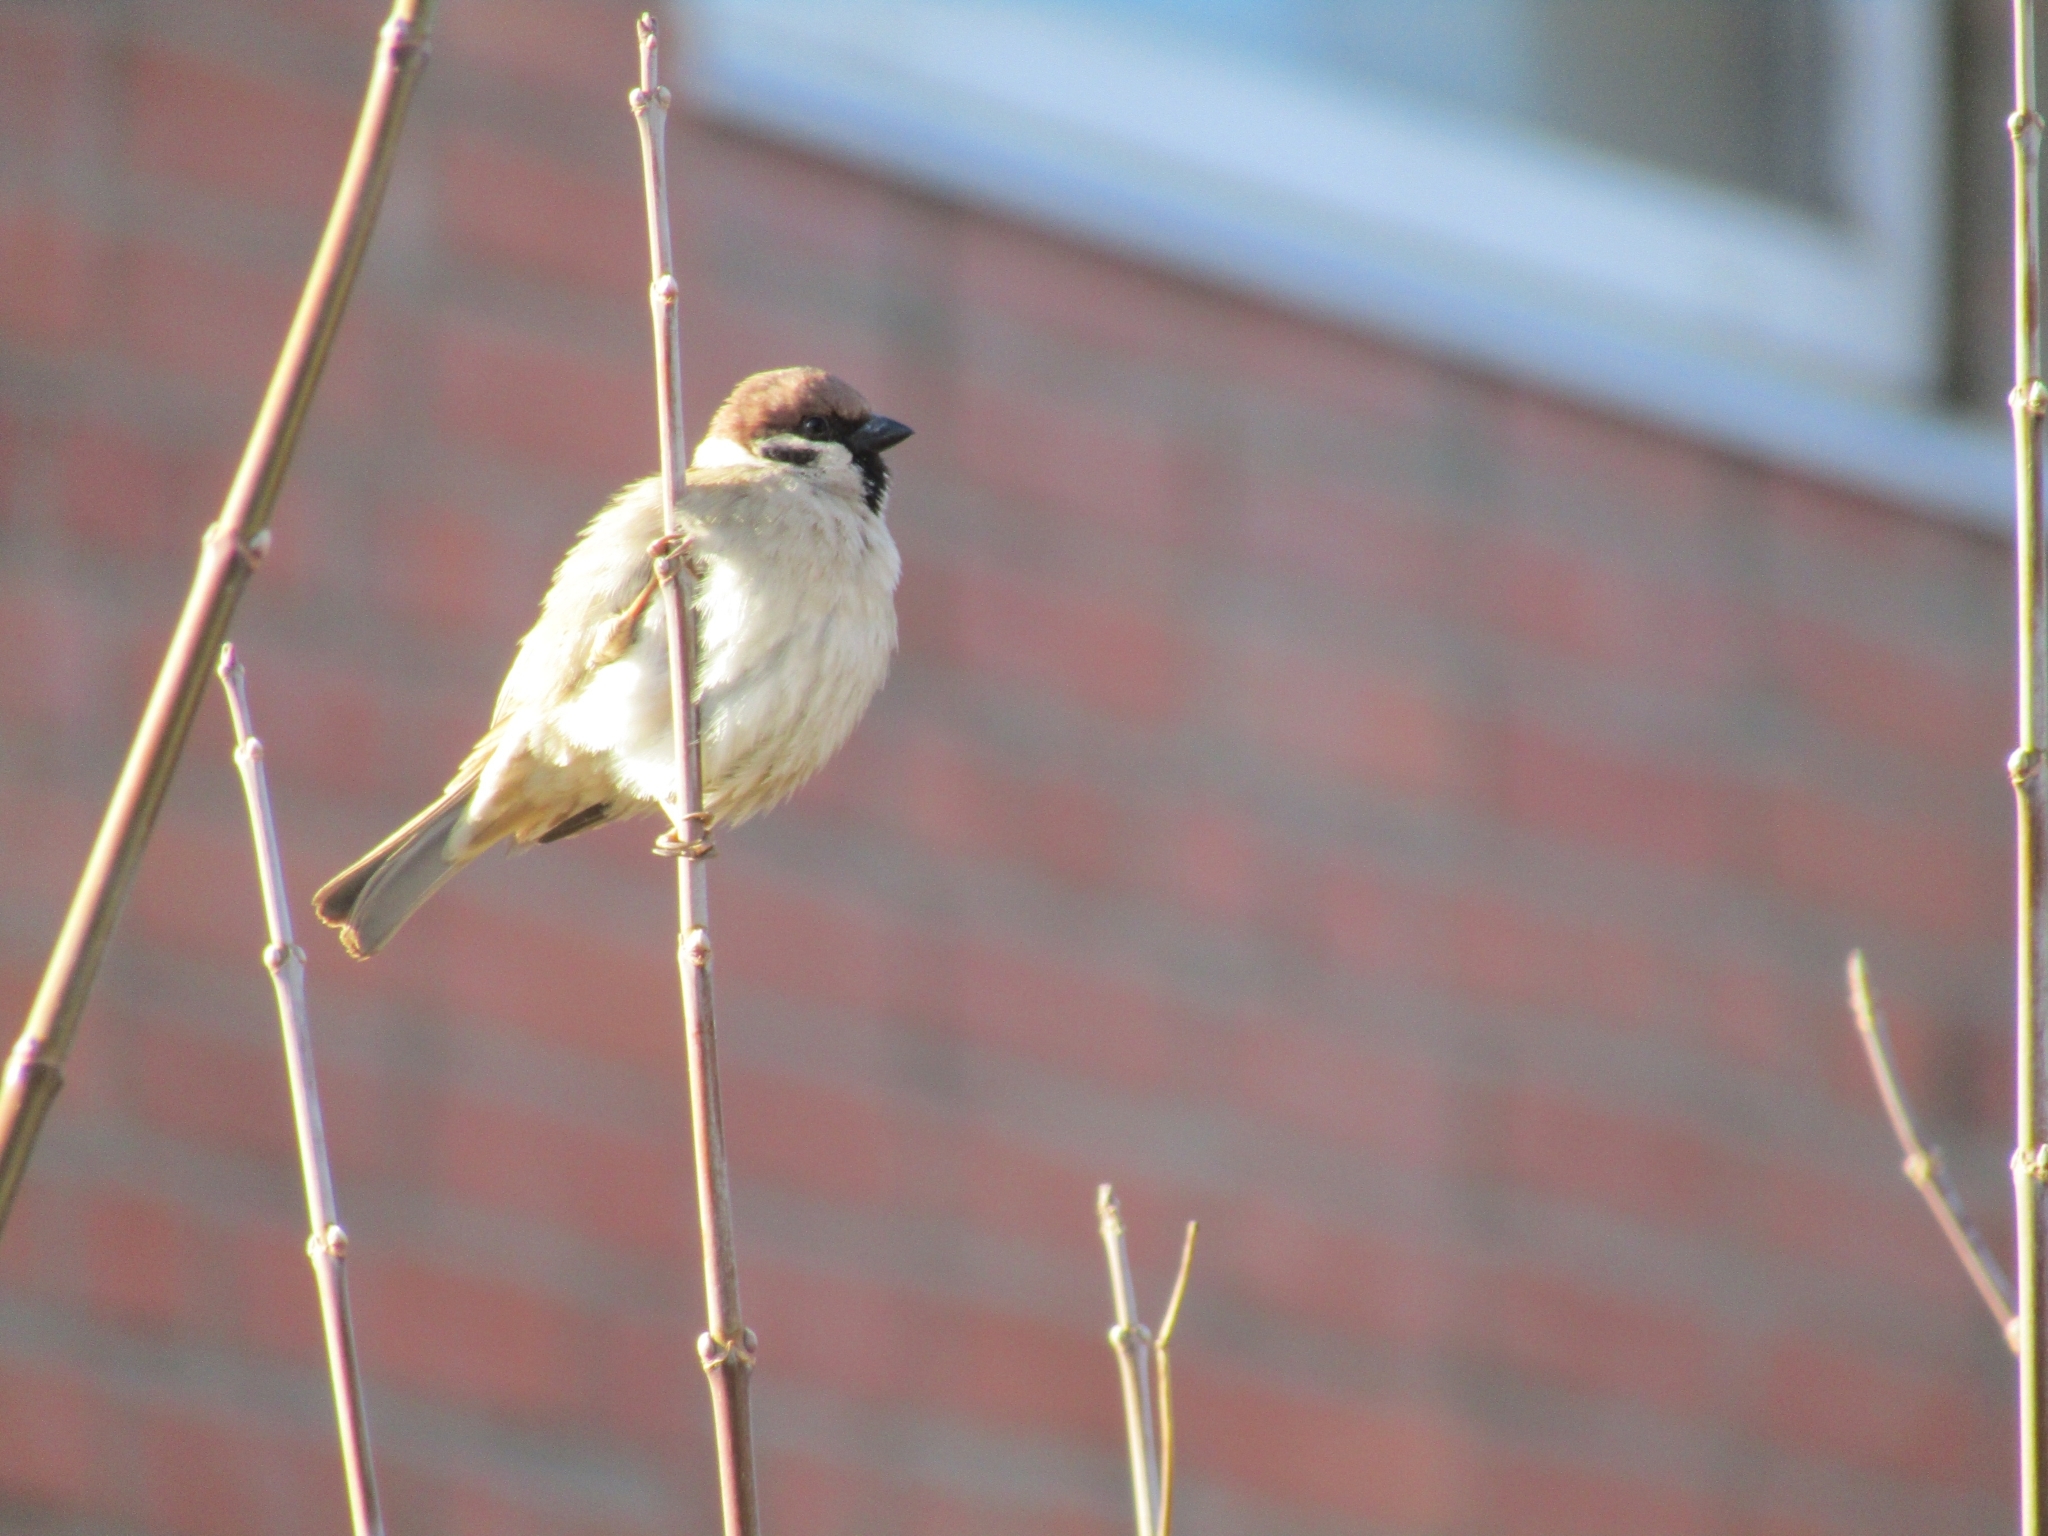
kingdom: Animalia
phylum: Chordata
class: Aves
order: Passeriformes
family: Passeridae
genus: Passer
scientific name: Passer montanus
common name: Eurasian tree sparrow
